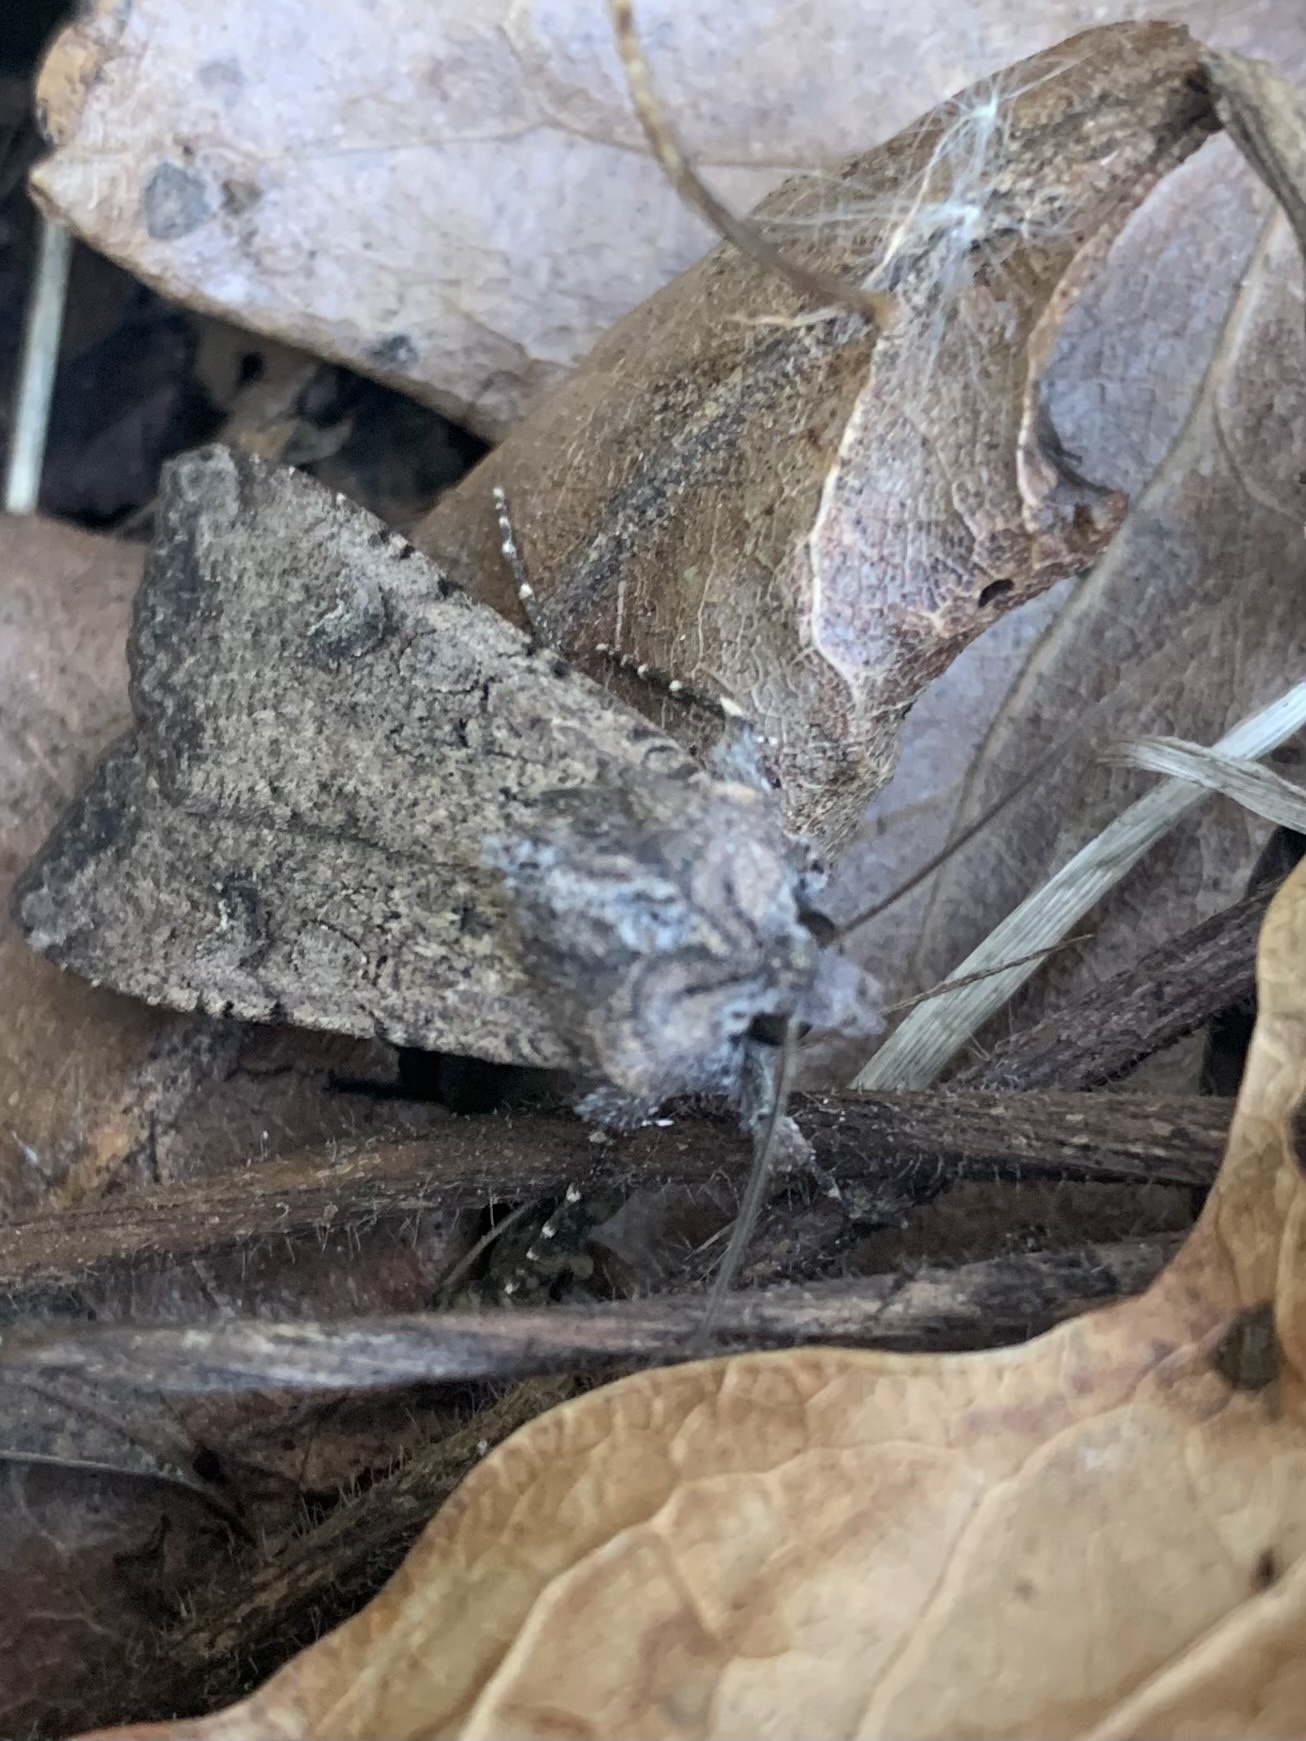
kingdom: Animalia
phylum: Arthropoda
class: Insecta
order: Lepidoptera
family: Noctuidae
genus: Peridroma
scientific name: Peridroma saucia
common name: Pearly underwing
